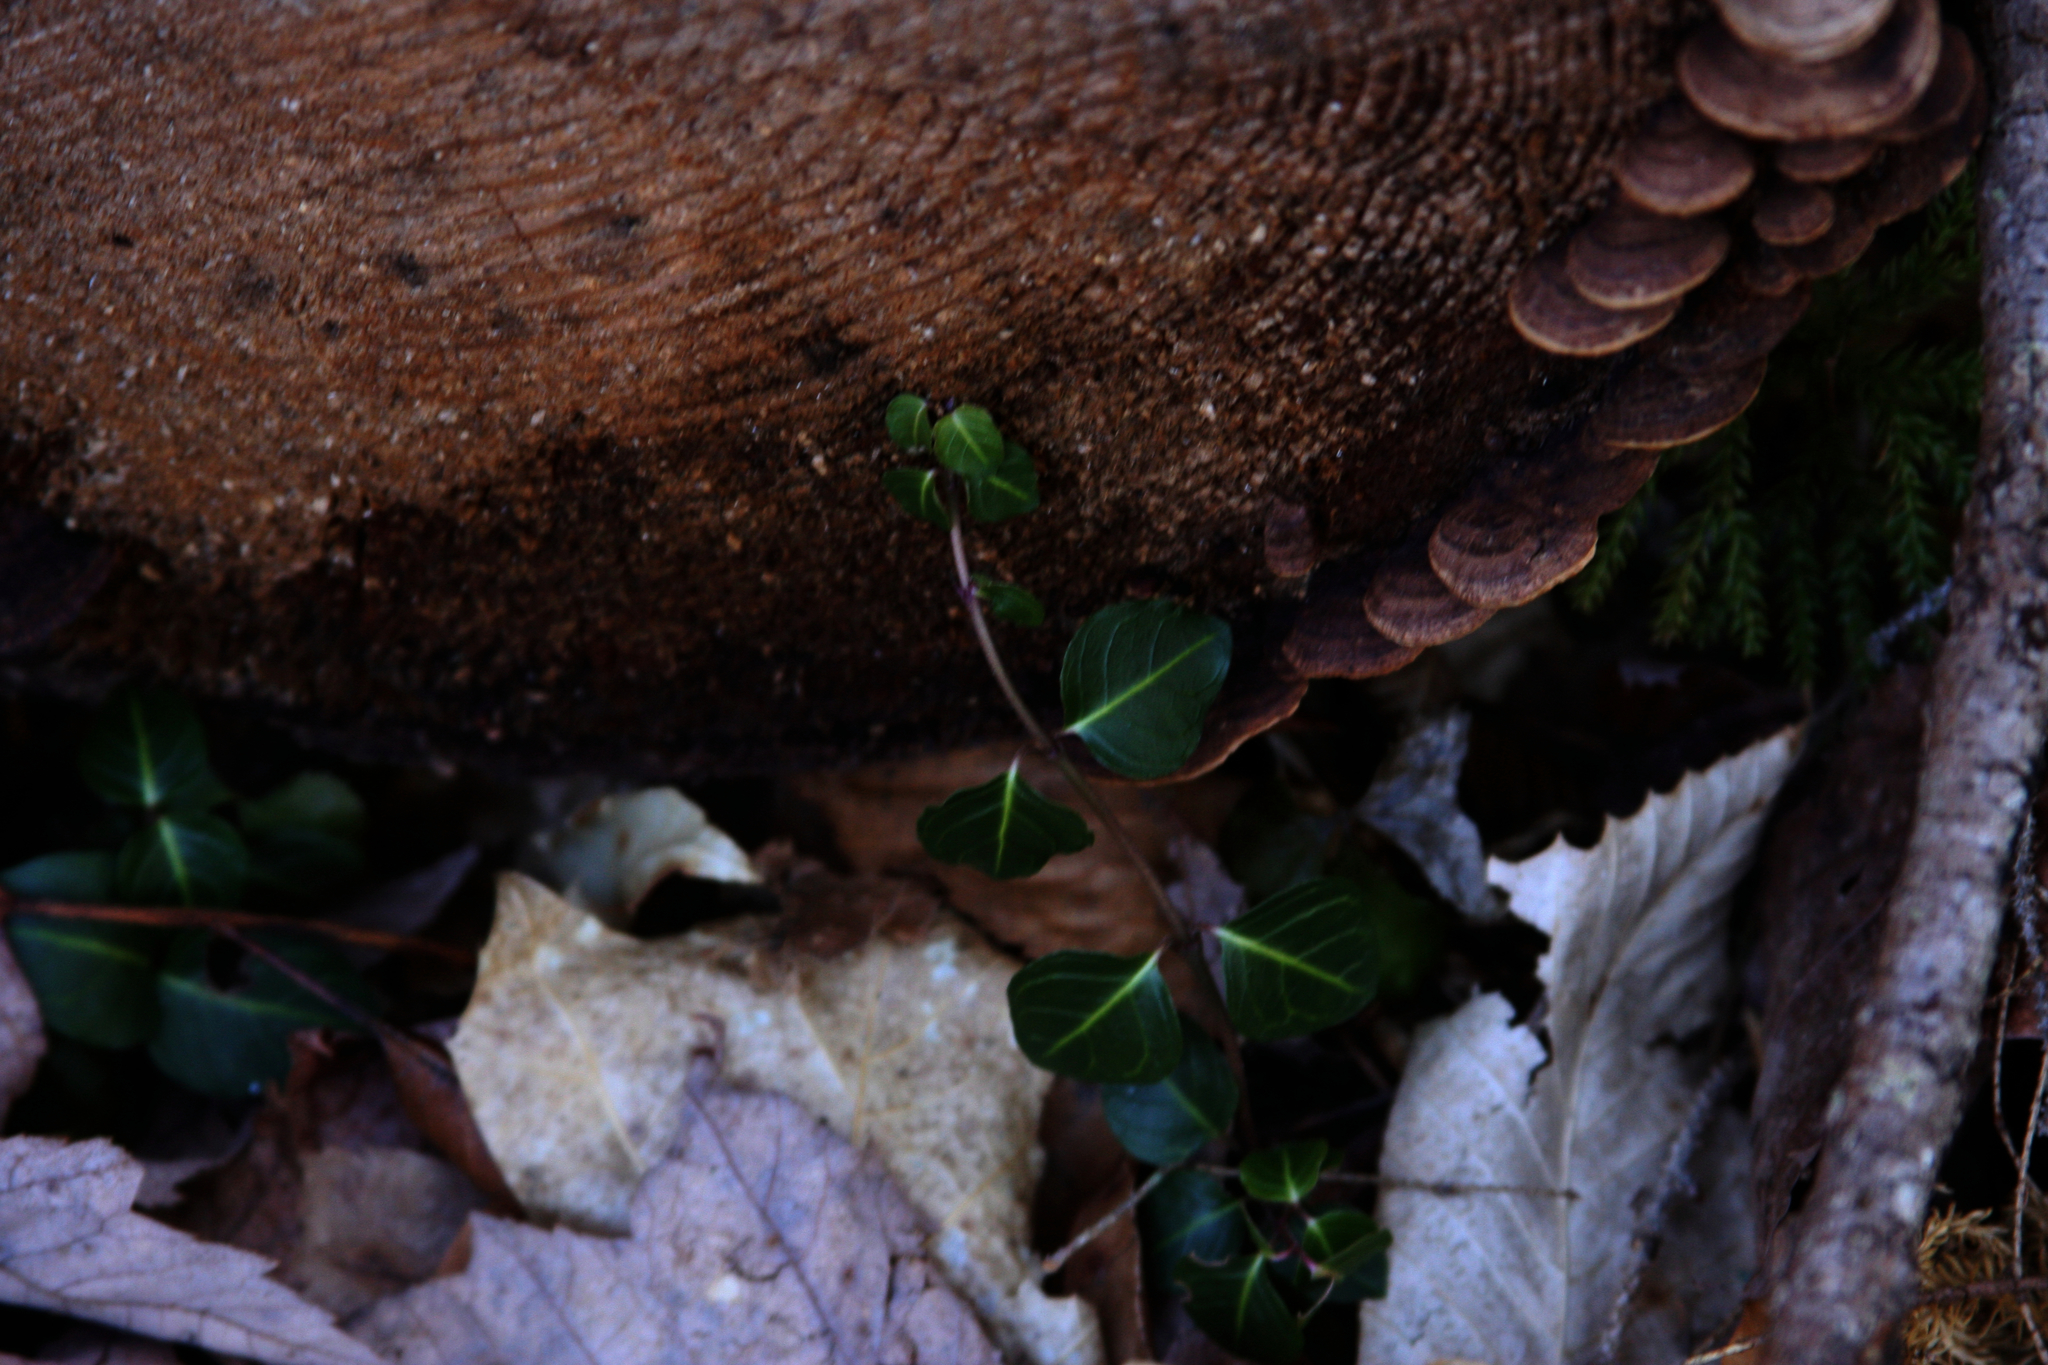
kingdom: Plantae
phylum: Tracheophyta
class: Magnoliopsida
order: Gentianales
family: Rubiaceae
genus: Mitchella
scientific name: Mitchella repens
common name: Partridge-berry
